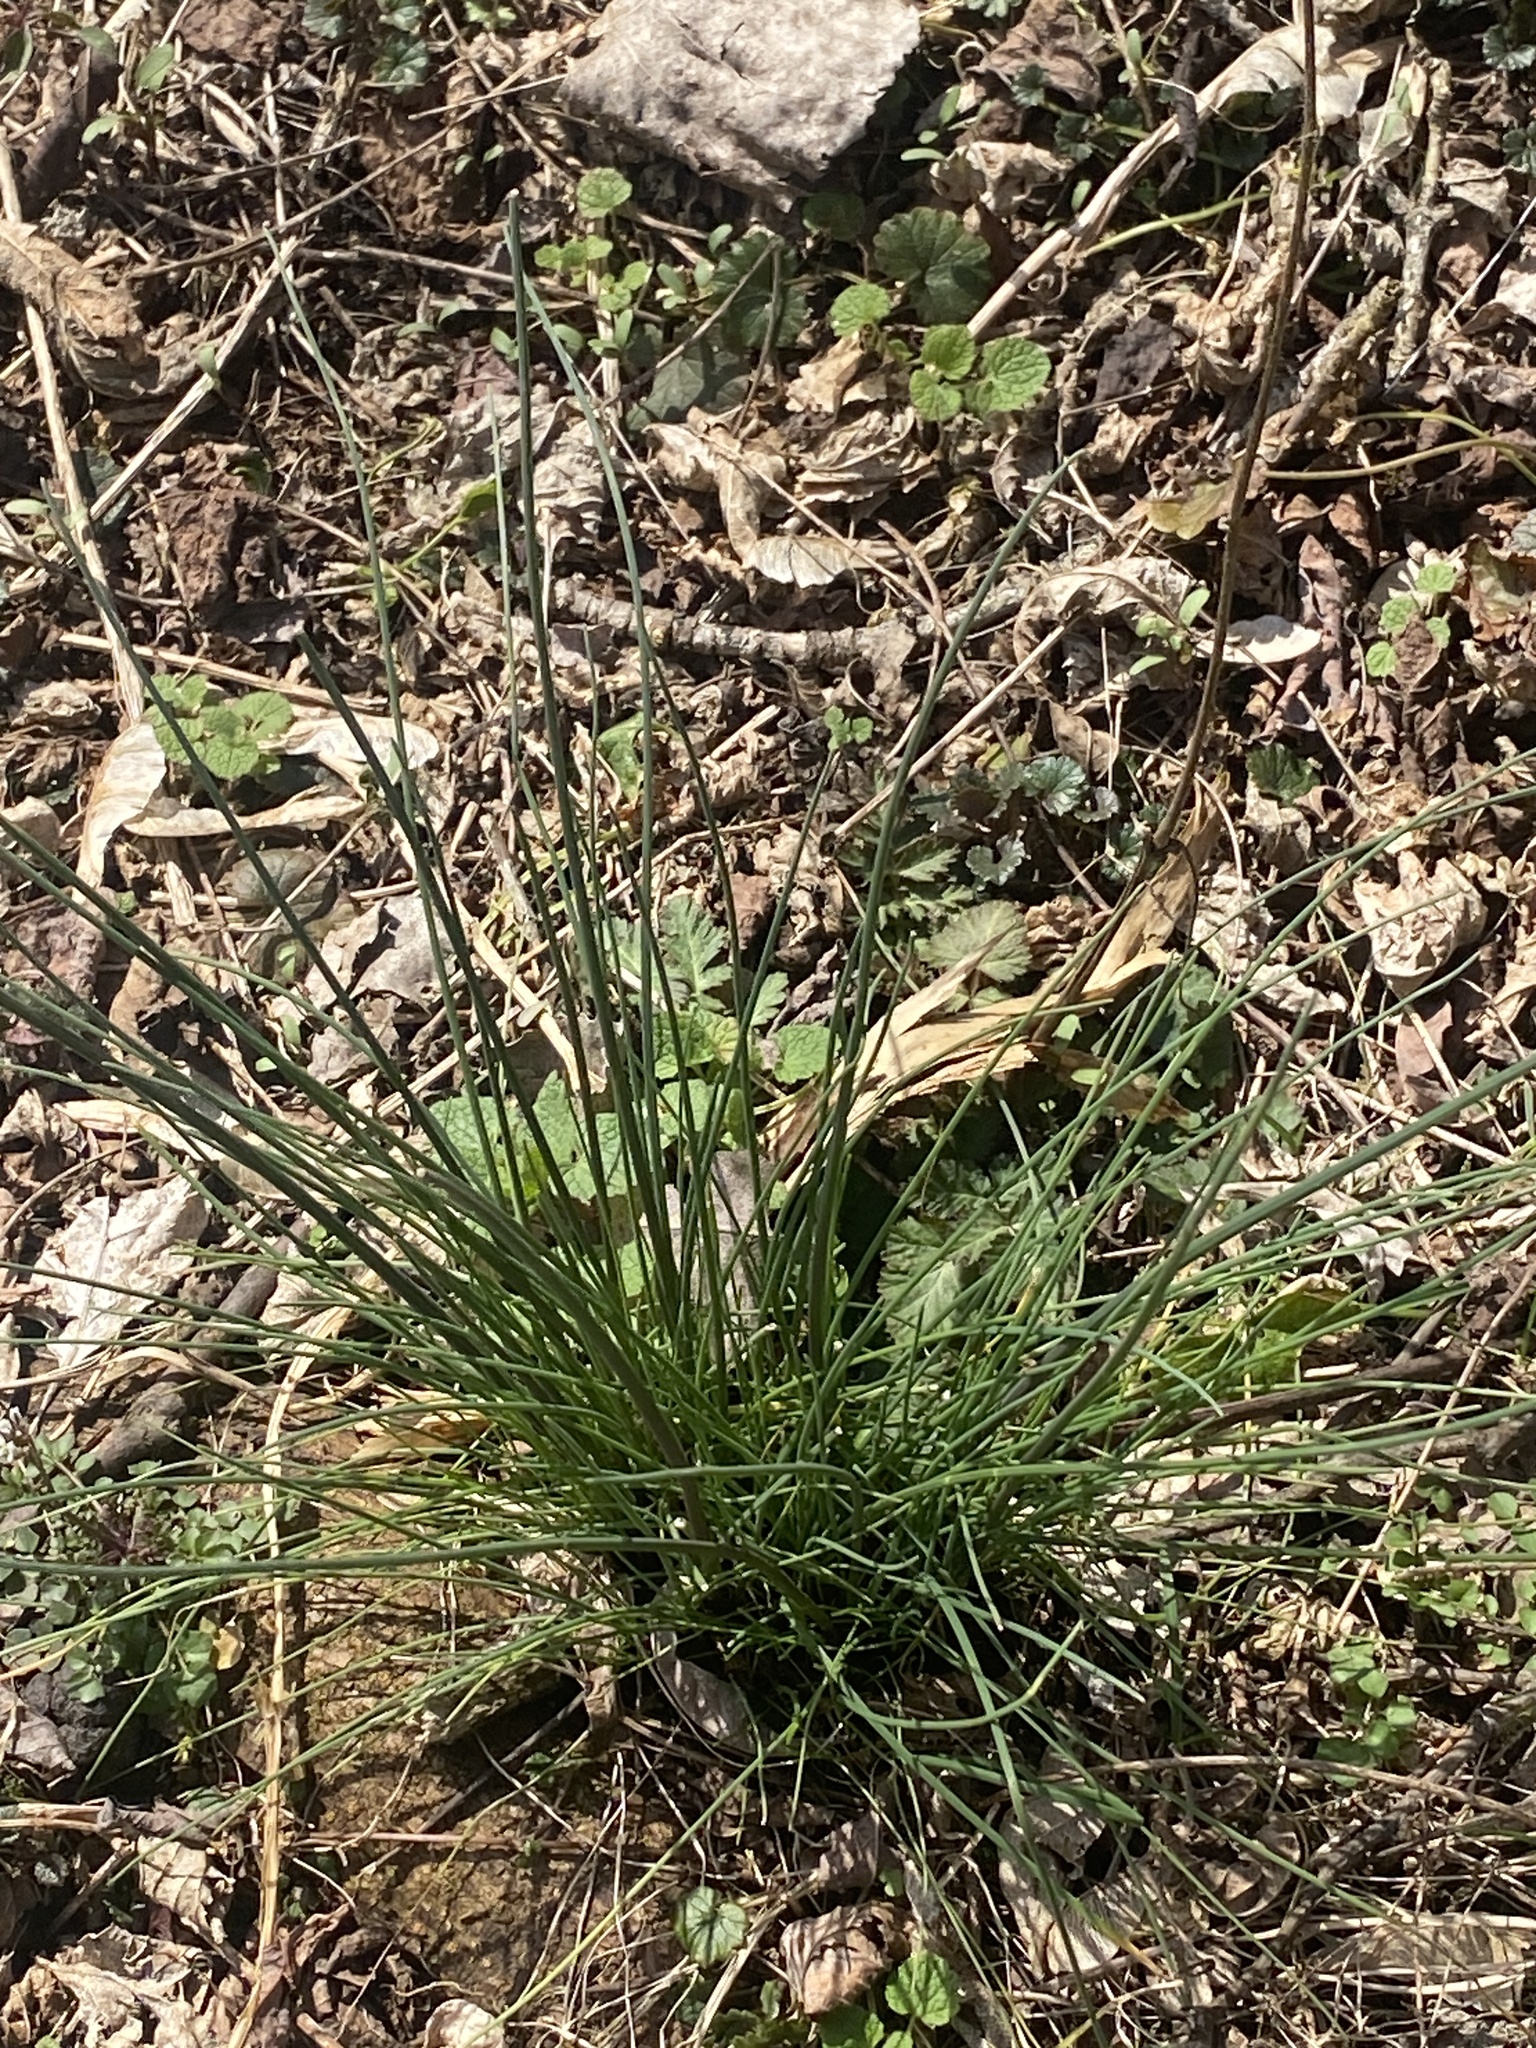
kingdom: Plantae
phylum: Tracheophyta
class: Liliopsida
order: Asparagales
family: Amaryllidaceae
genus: Allium
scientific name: Allium vineale
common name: Crow garlic
